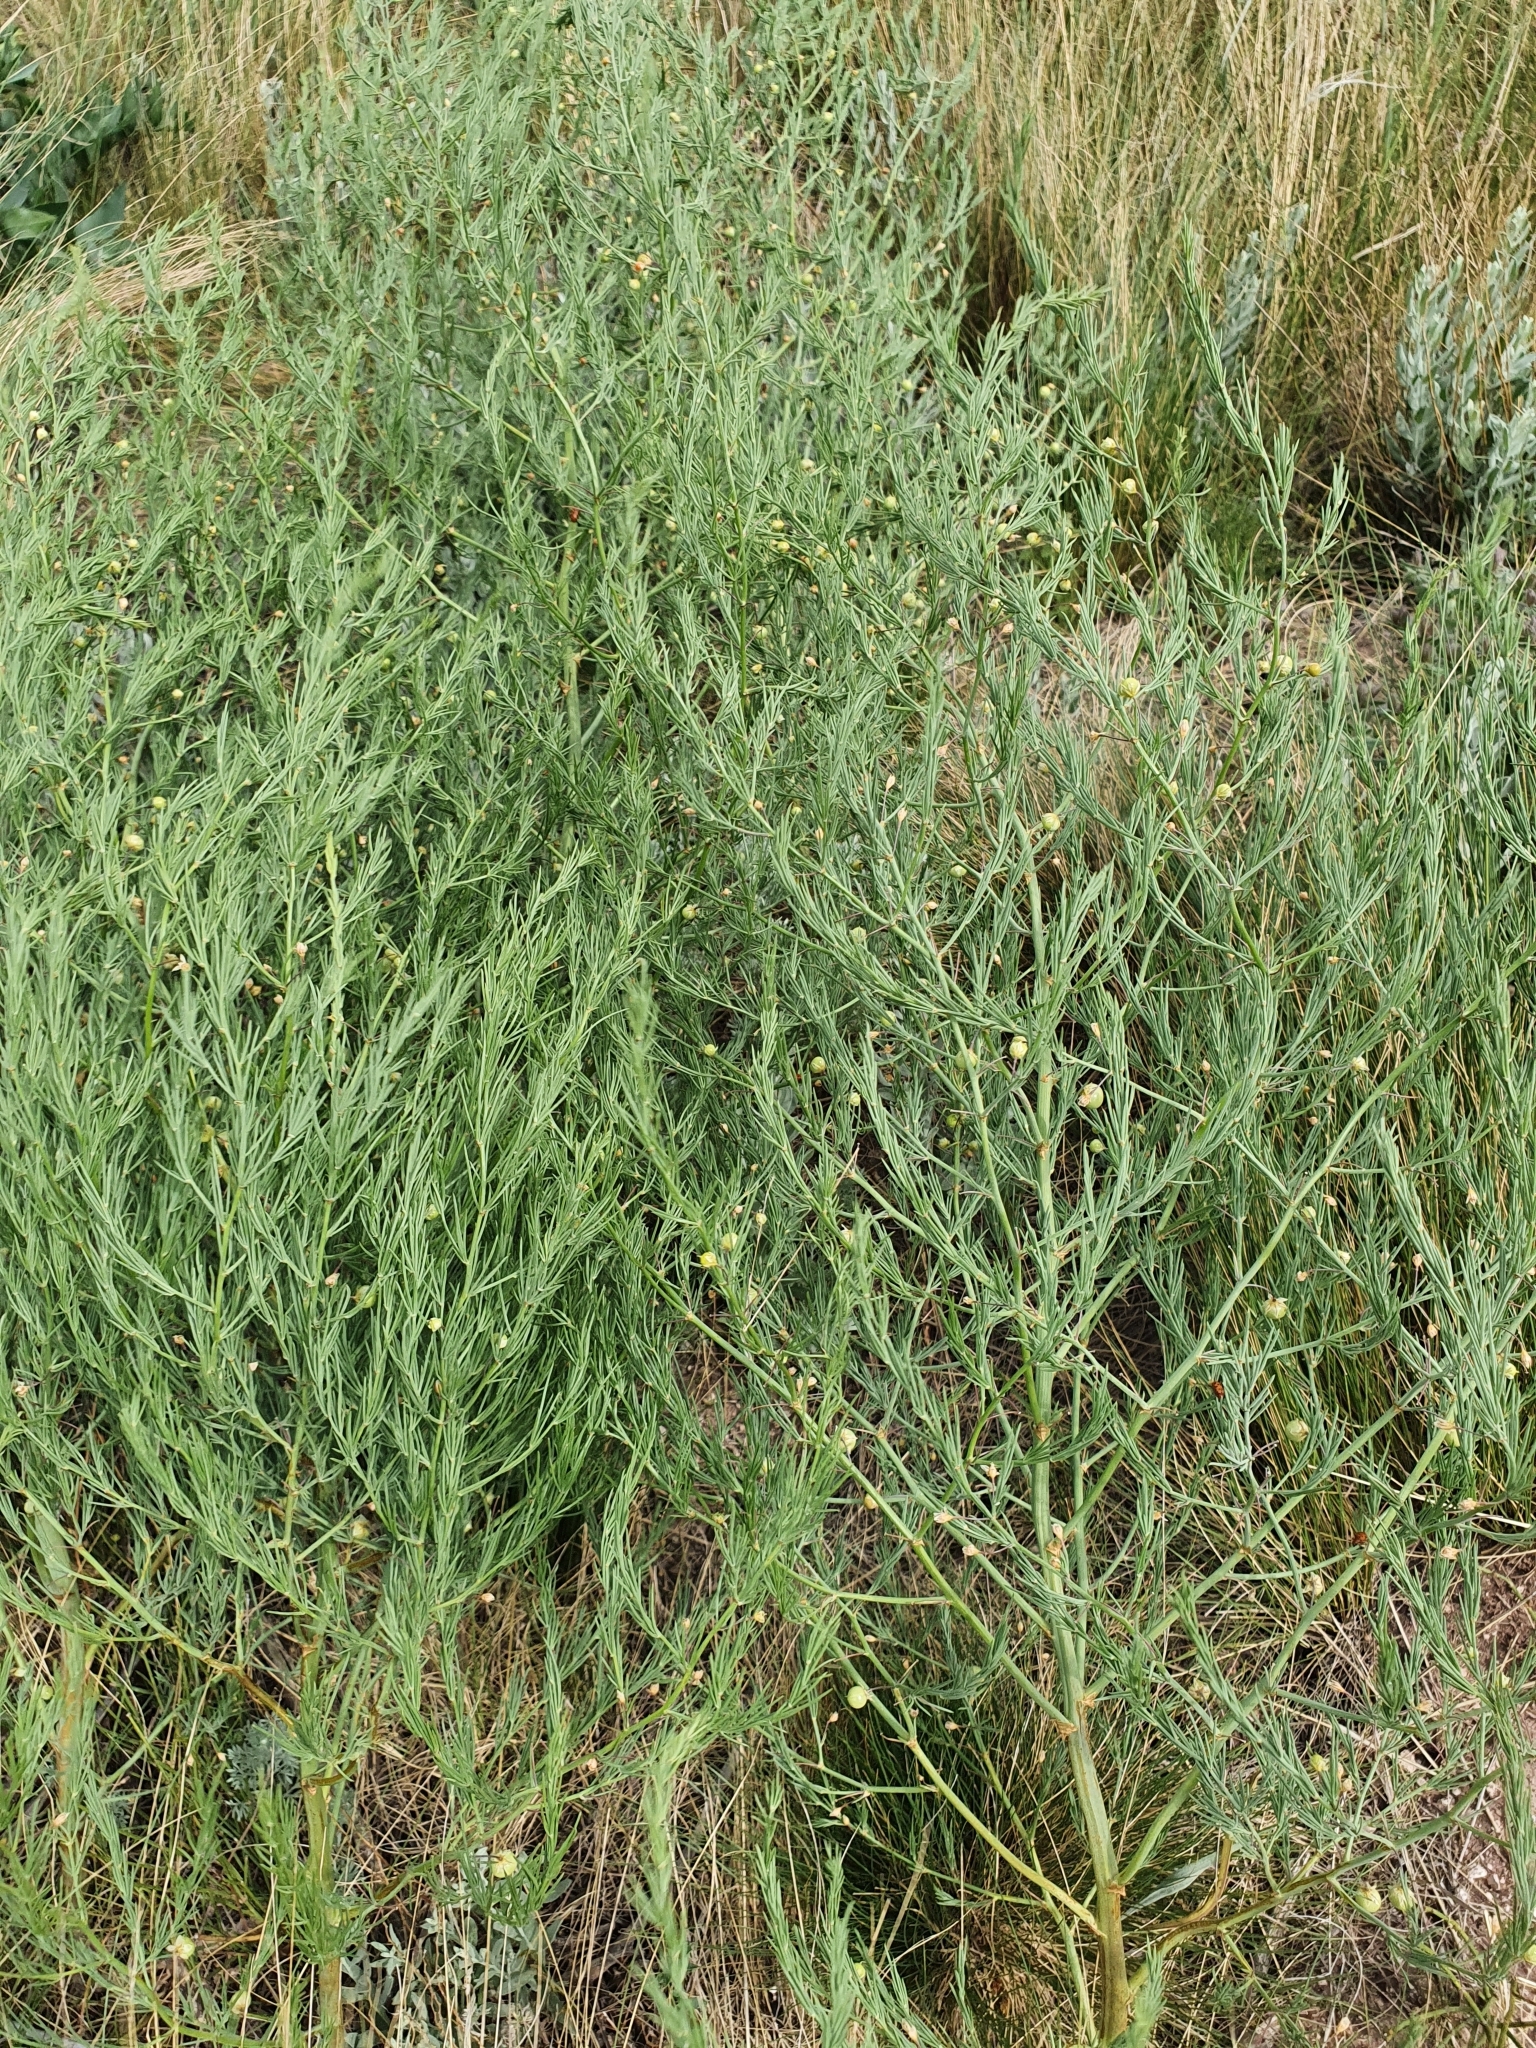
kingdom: Plantae
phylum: Tracheophyta
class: Liliopsida
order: Asparagales
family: Asparagaceae
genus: Asparagus
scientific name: Asparagus officinalis
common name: Garden asparagus
